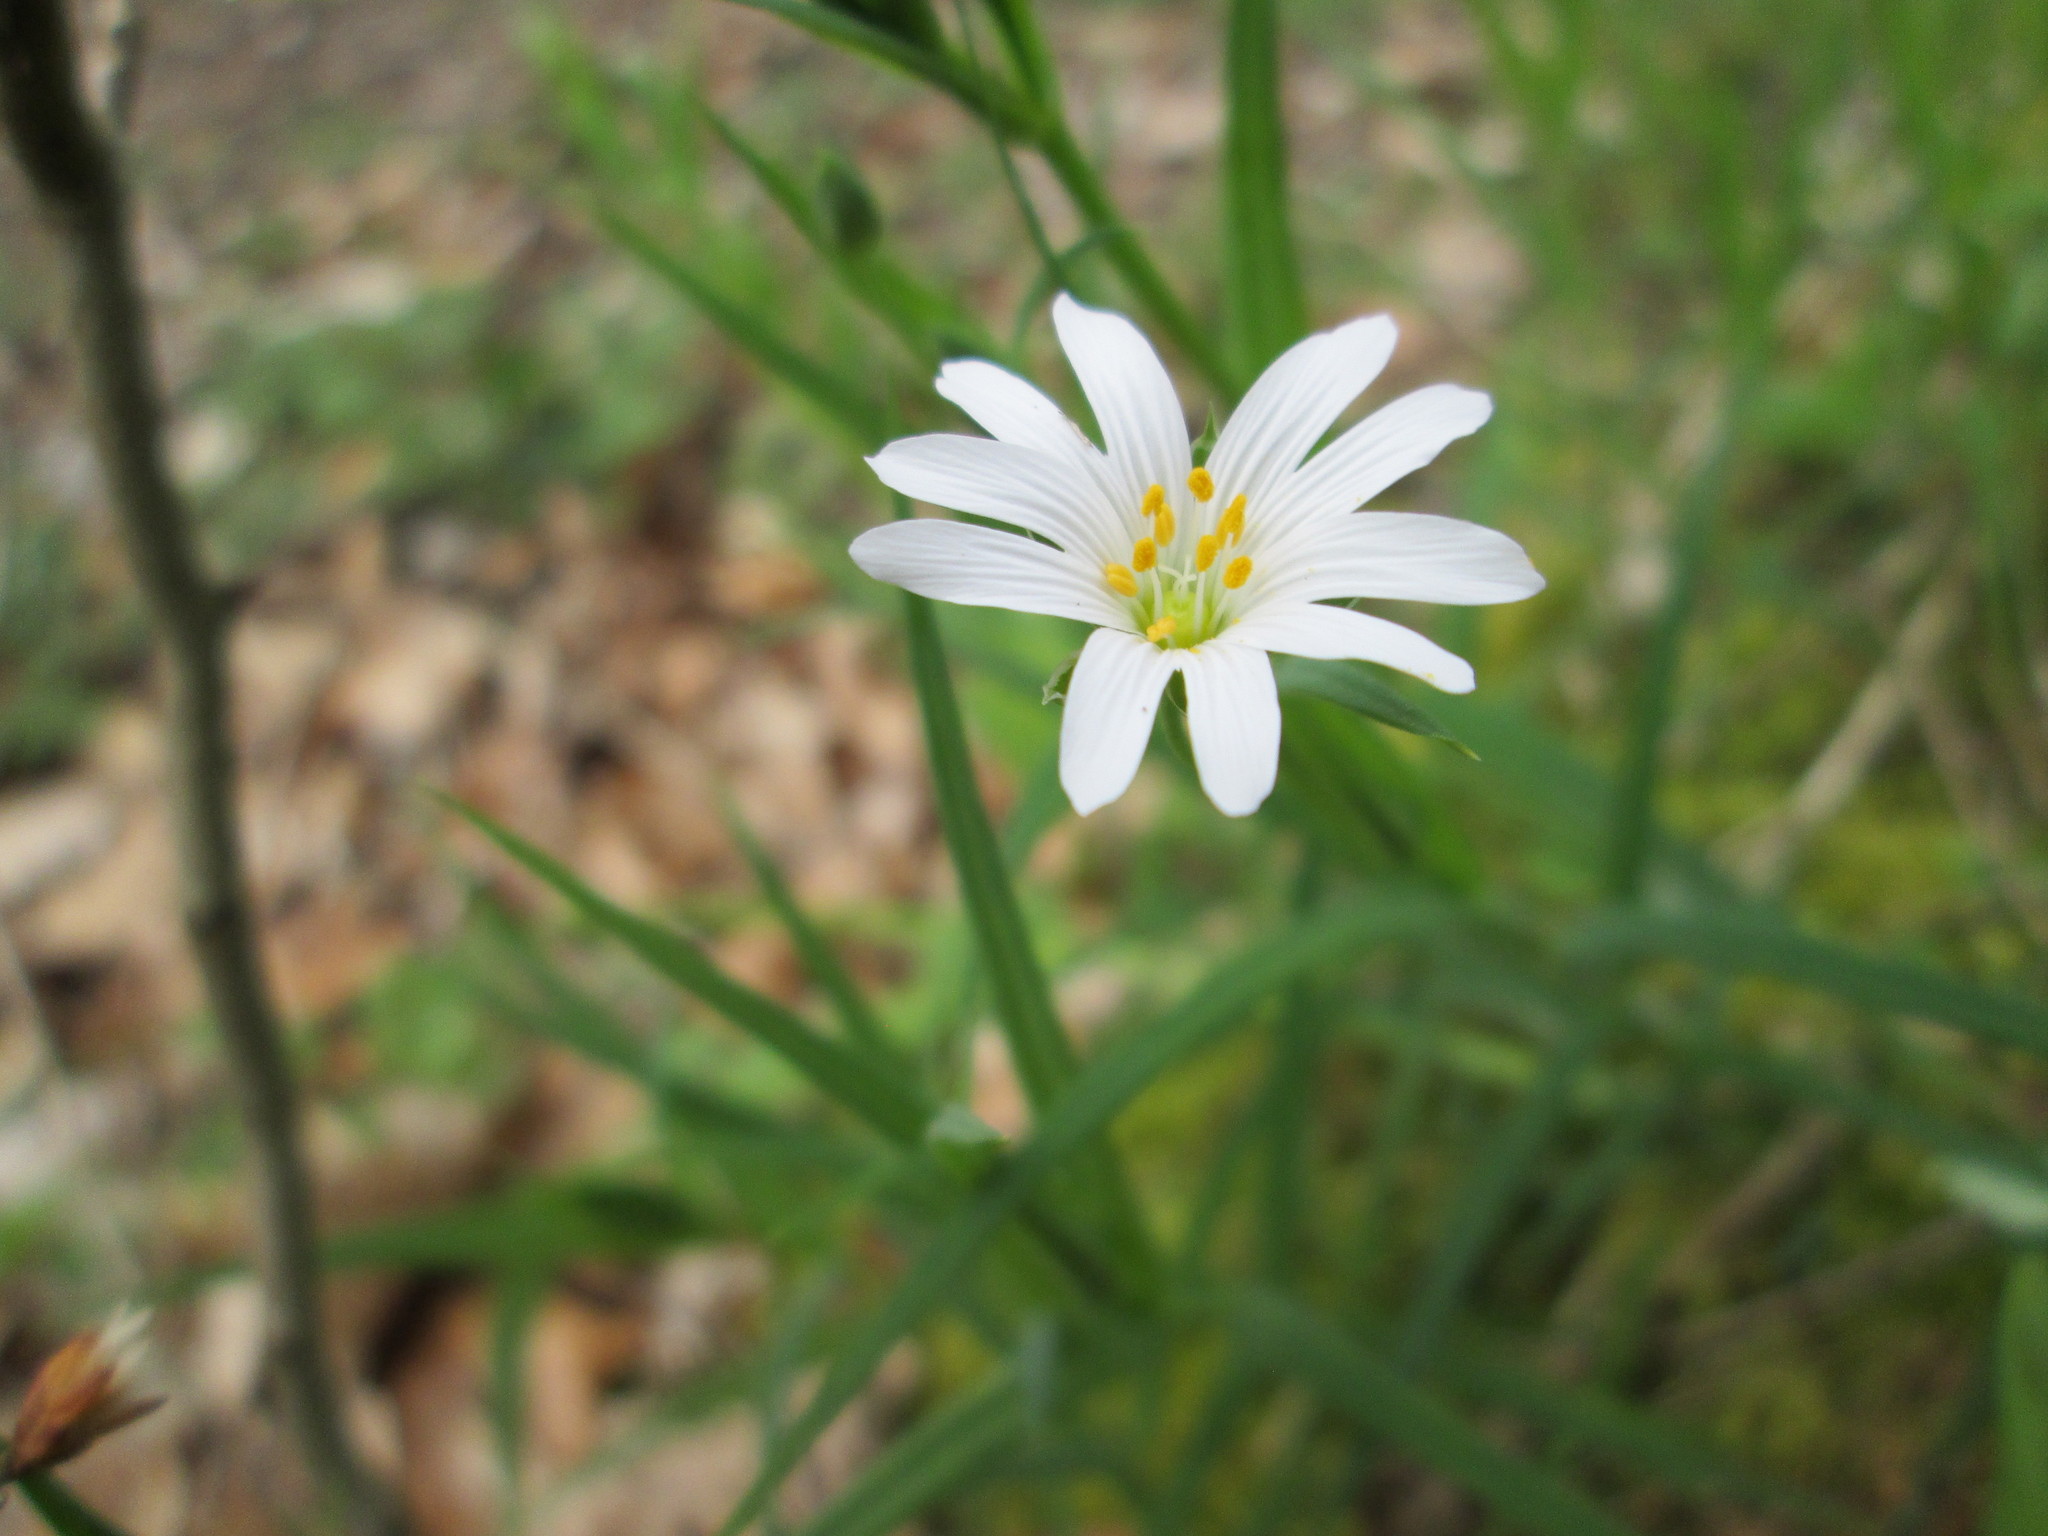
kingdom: Plantae
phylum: Tracheophyta
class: Magnoliopsida
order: Caryophyllales
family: Caryophyllaceae
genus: Rabelera
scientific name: Rabelera holostea
